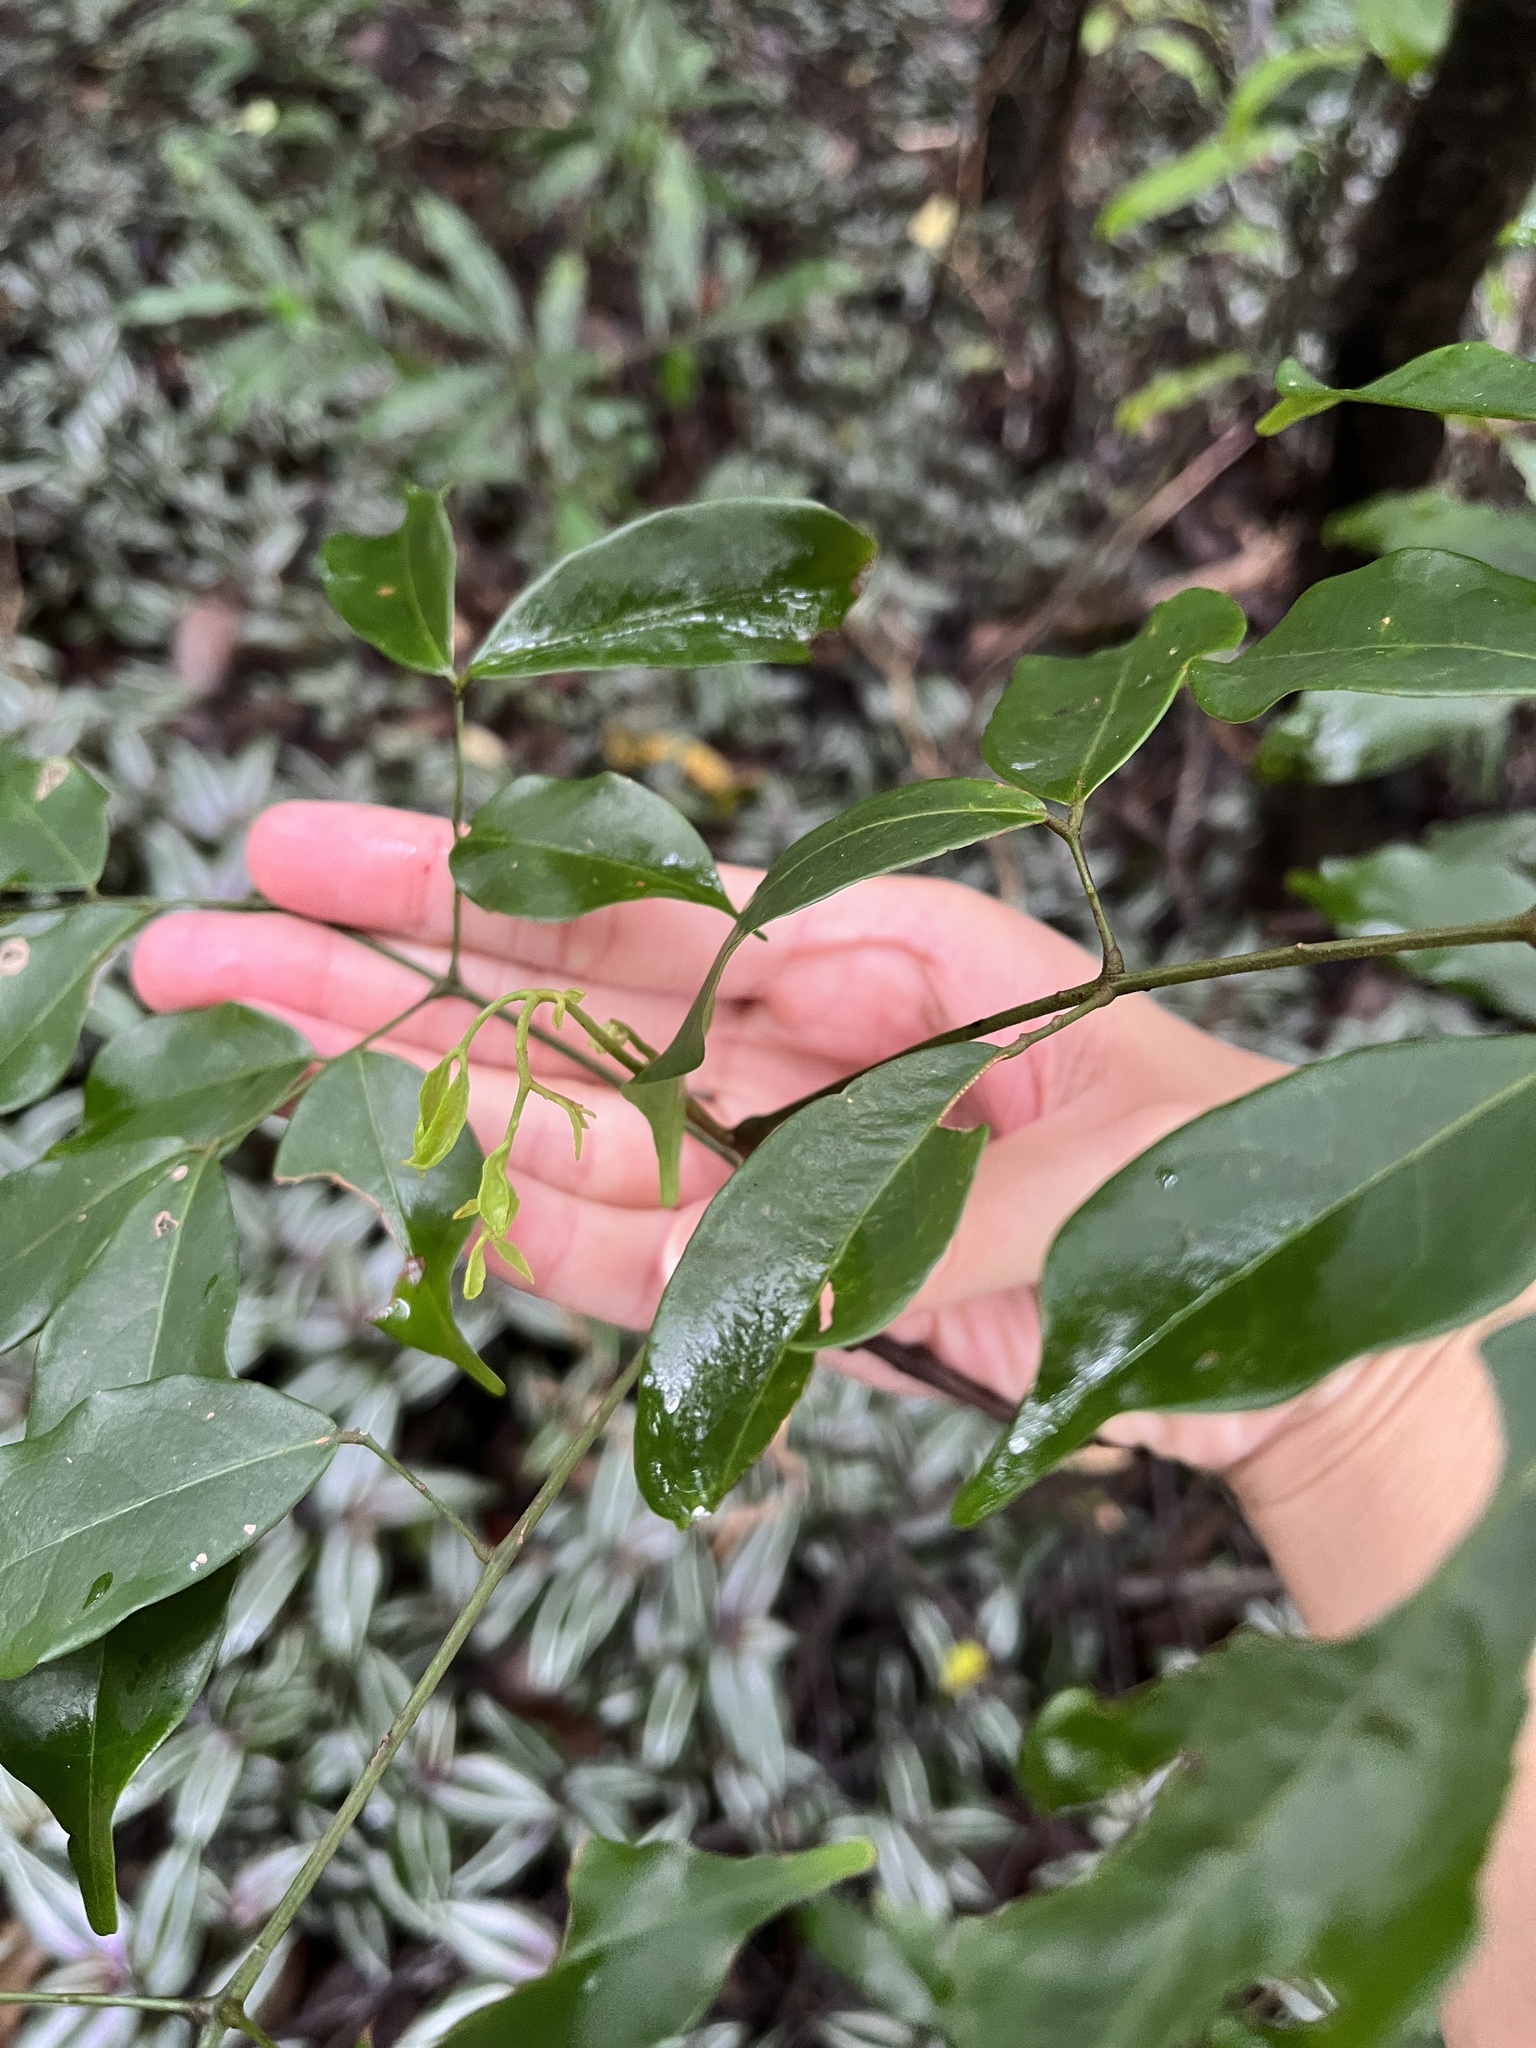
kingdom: Plantae
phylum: Tracheophyta
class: Magnoliopsida
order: Fabales
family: Fabaceae
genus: Archidendron
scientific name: Archidendron lucidum
